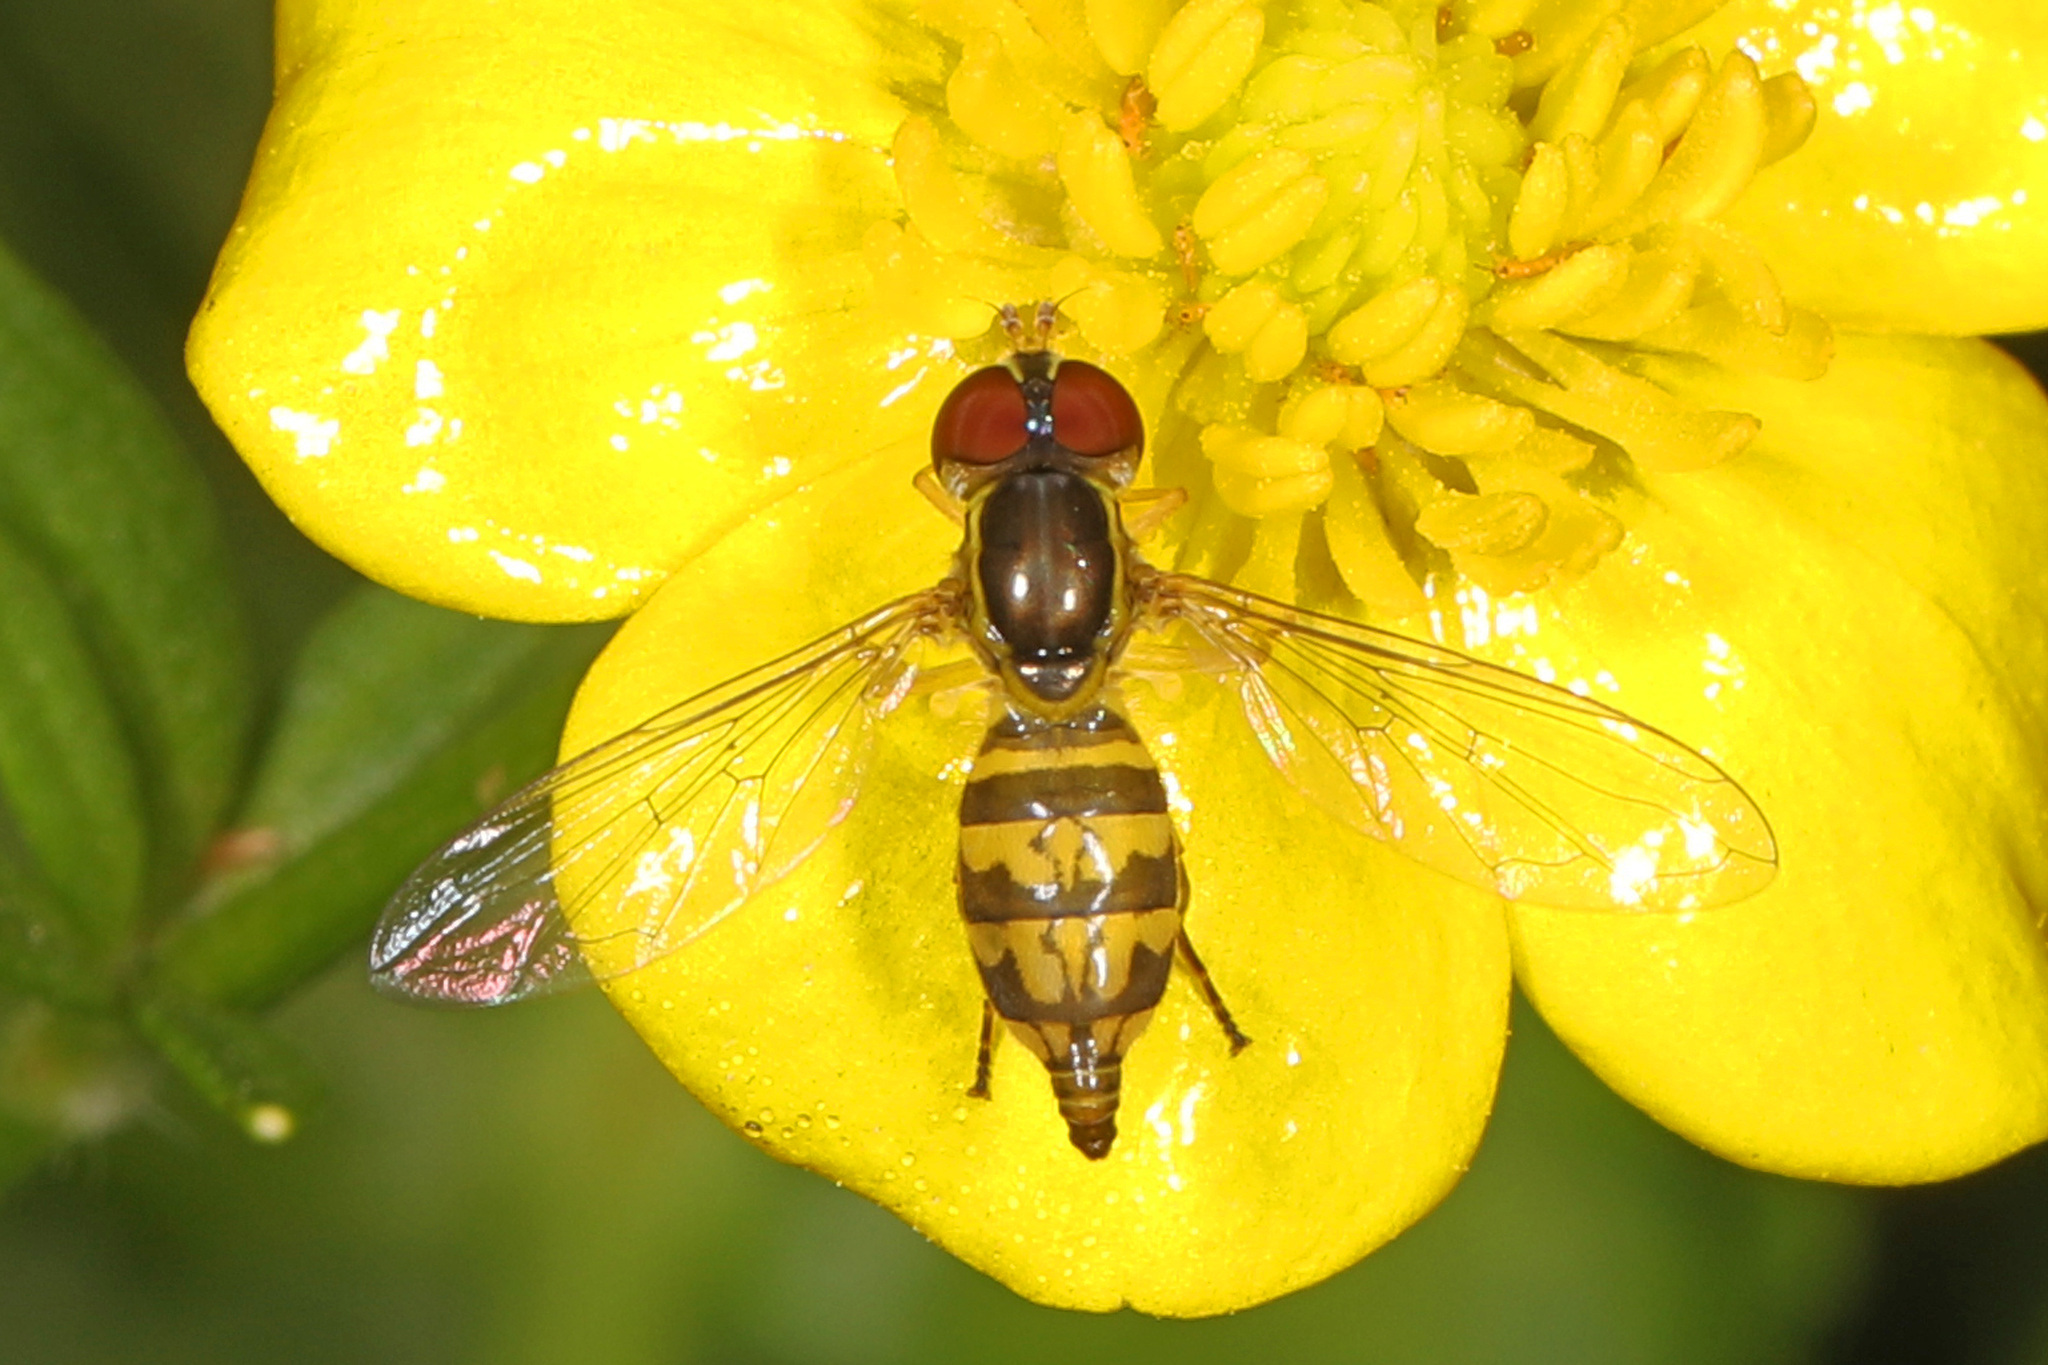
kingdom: Animalia
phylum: Arthropoda
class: Insecta
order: Diptera
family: Syrphidae
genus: Toxomerus
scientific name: Toxomerus geminatus
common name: Eastern calligrapher
